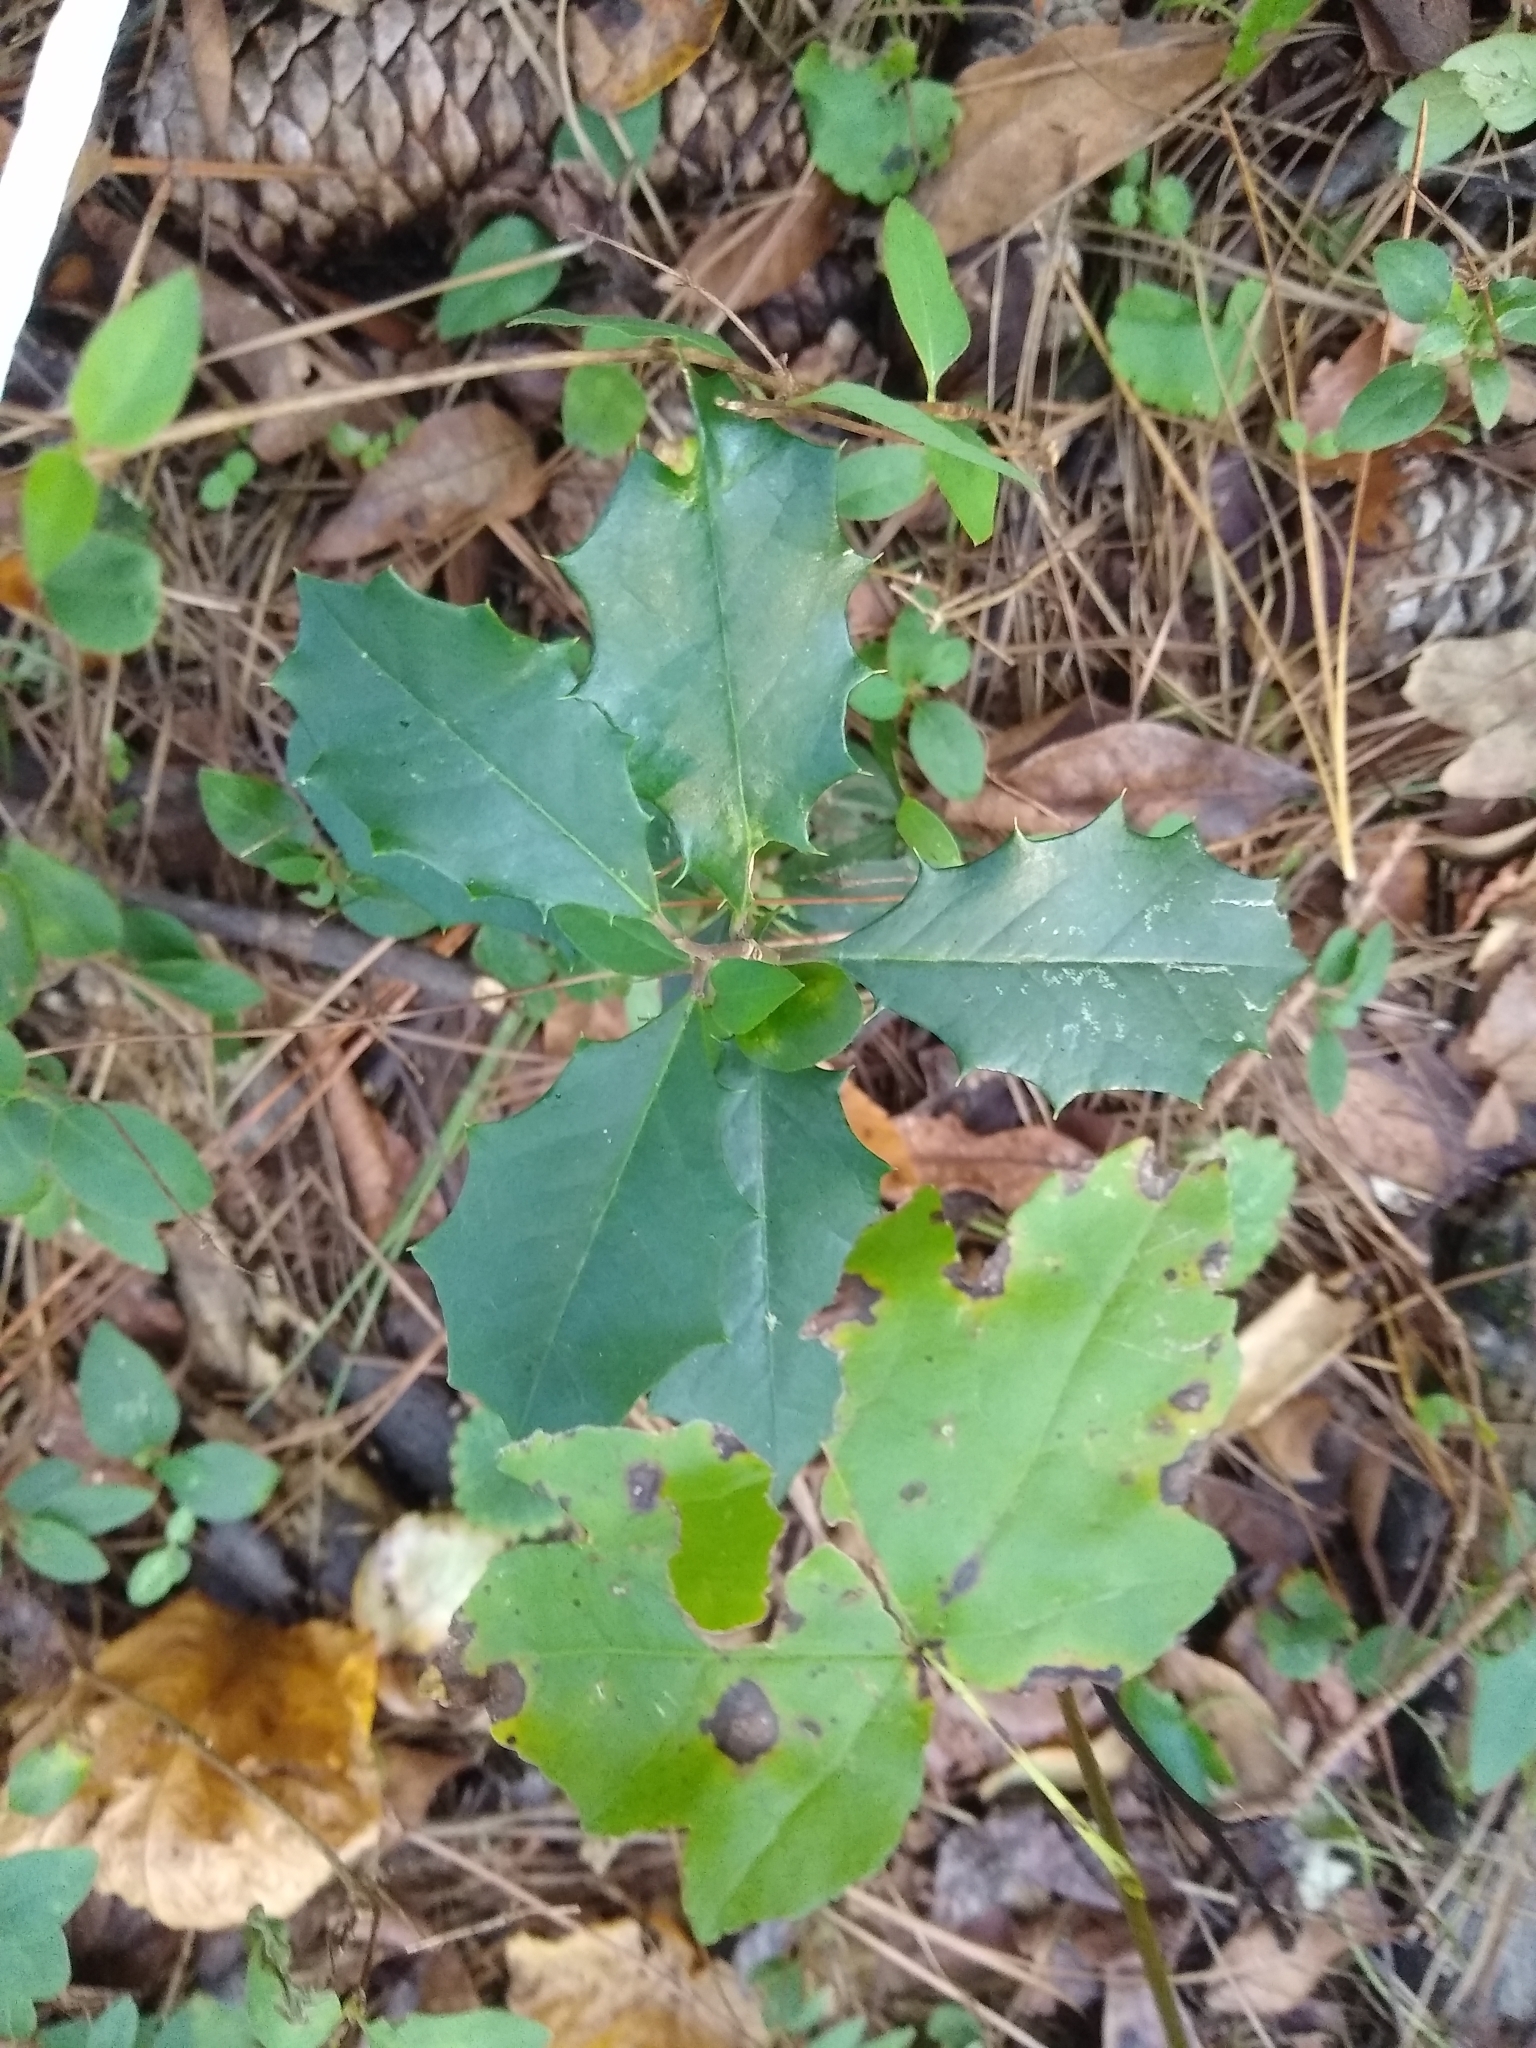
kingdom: Plantae
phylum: Tracheophyta
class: Magnoliopsida
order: Aquifoliales
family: Aquifoliaceae
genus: Ilex
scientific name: Ilex opaca
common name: American holly
